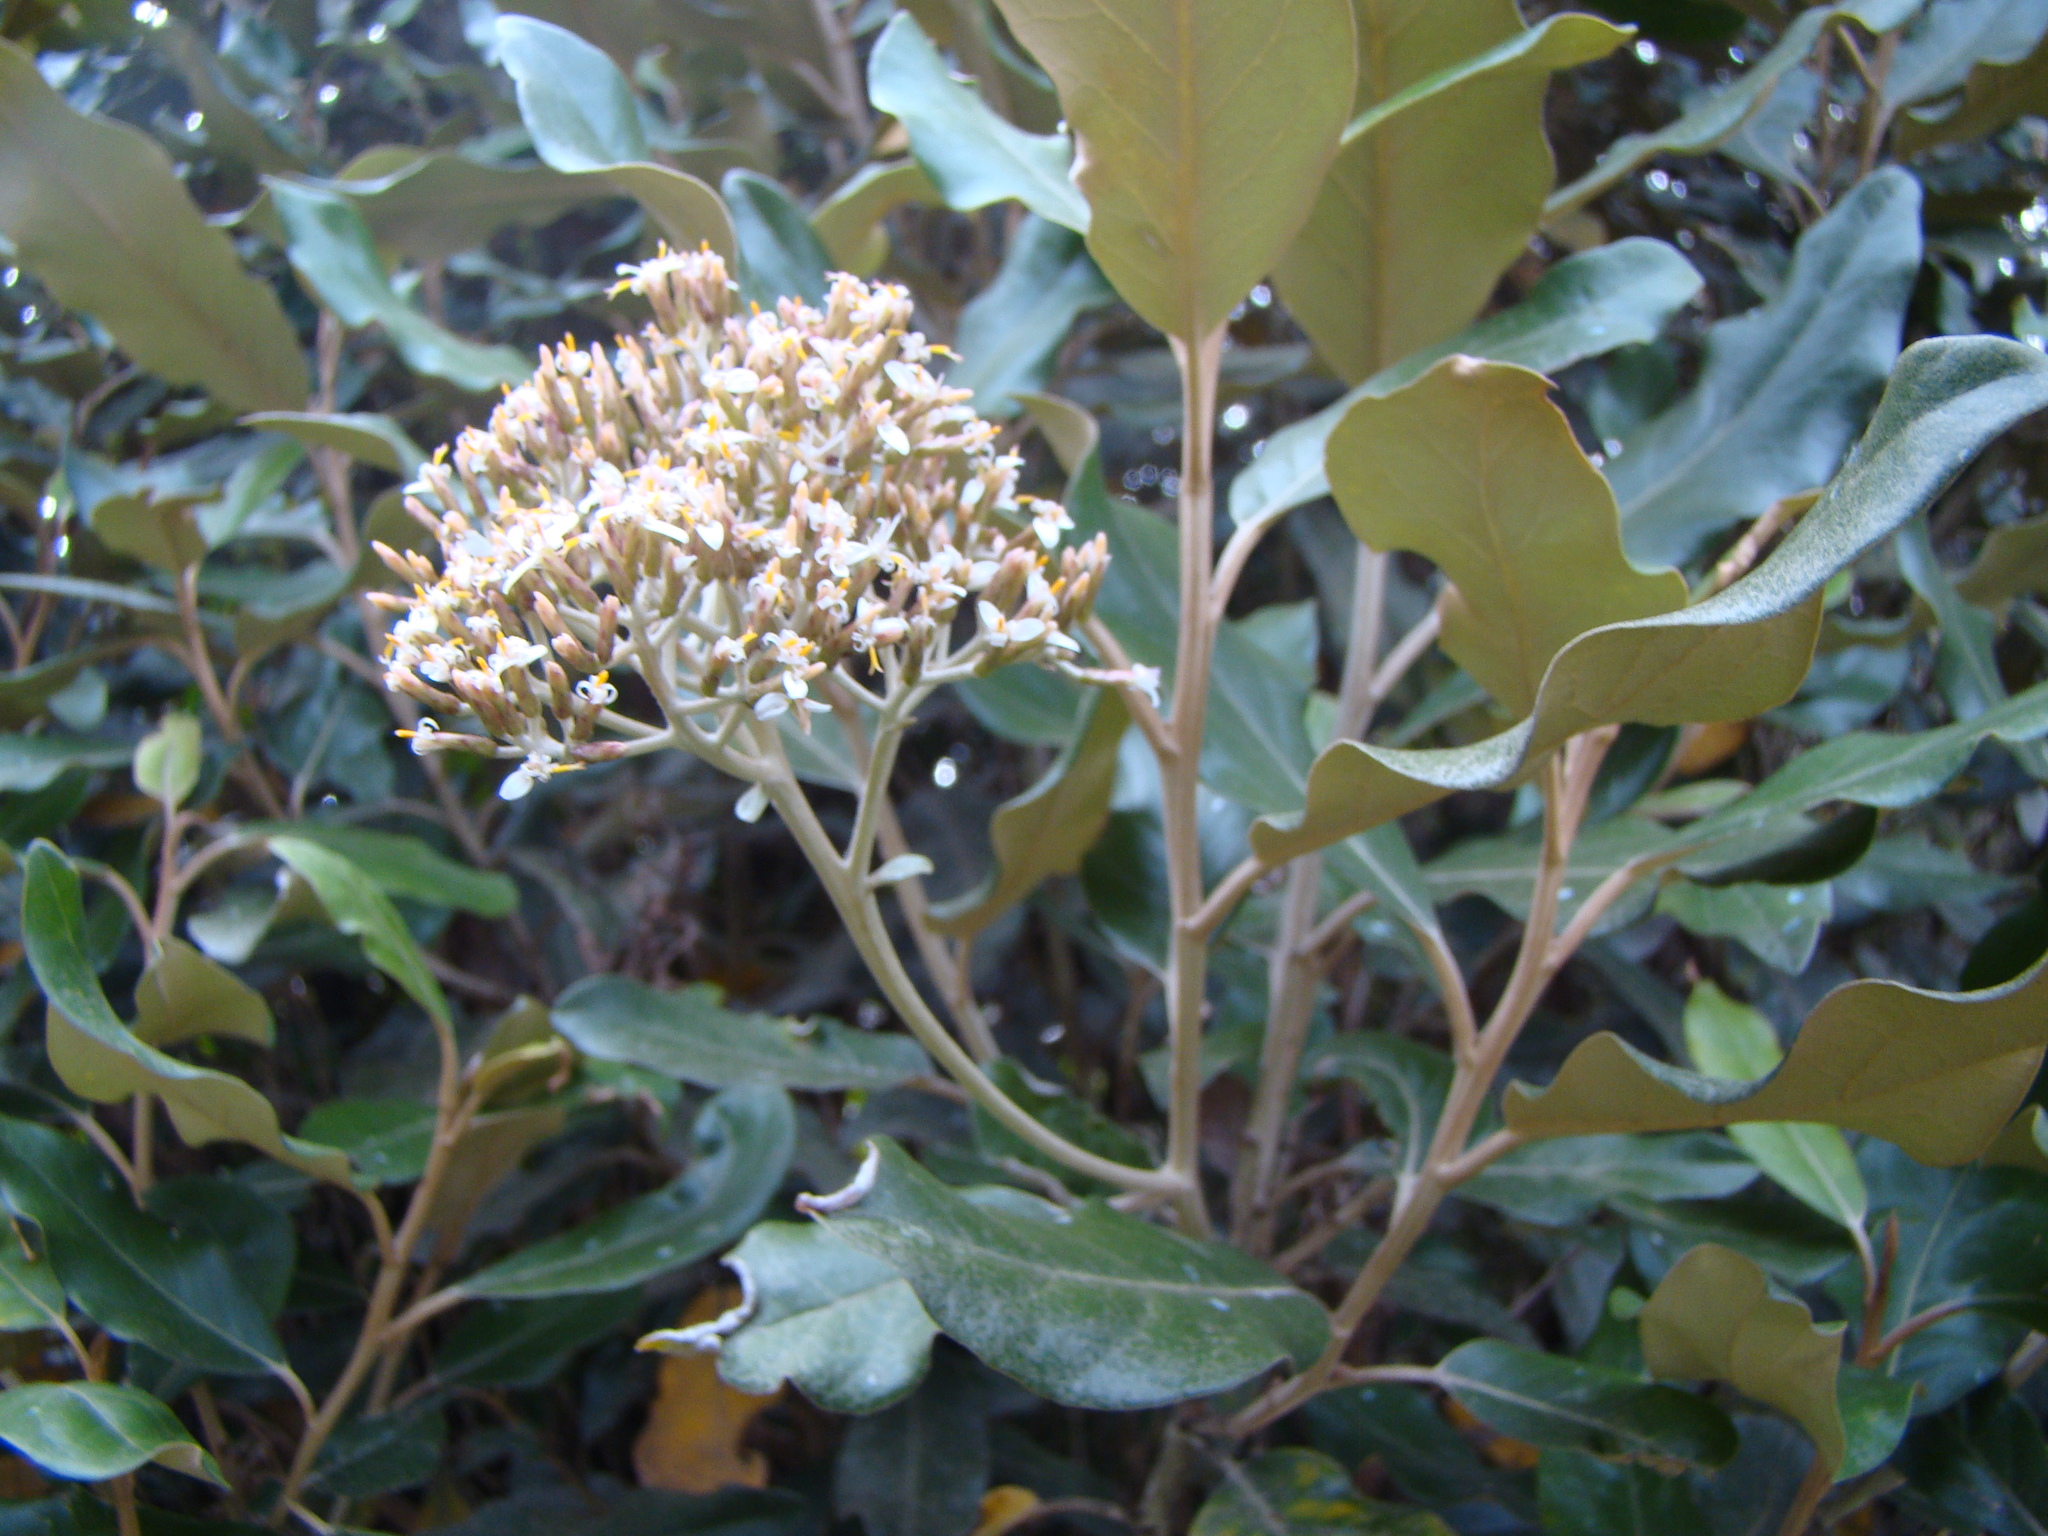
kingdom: Plantae
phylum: Tracheophyta
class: Magnoliopsida
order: Asterales
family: Asteraceae
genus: Olearia
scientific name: Olearia avicenniifolia
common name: Mangrove-leaf daisybush
